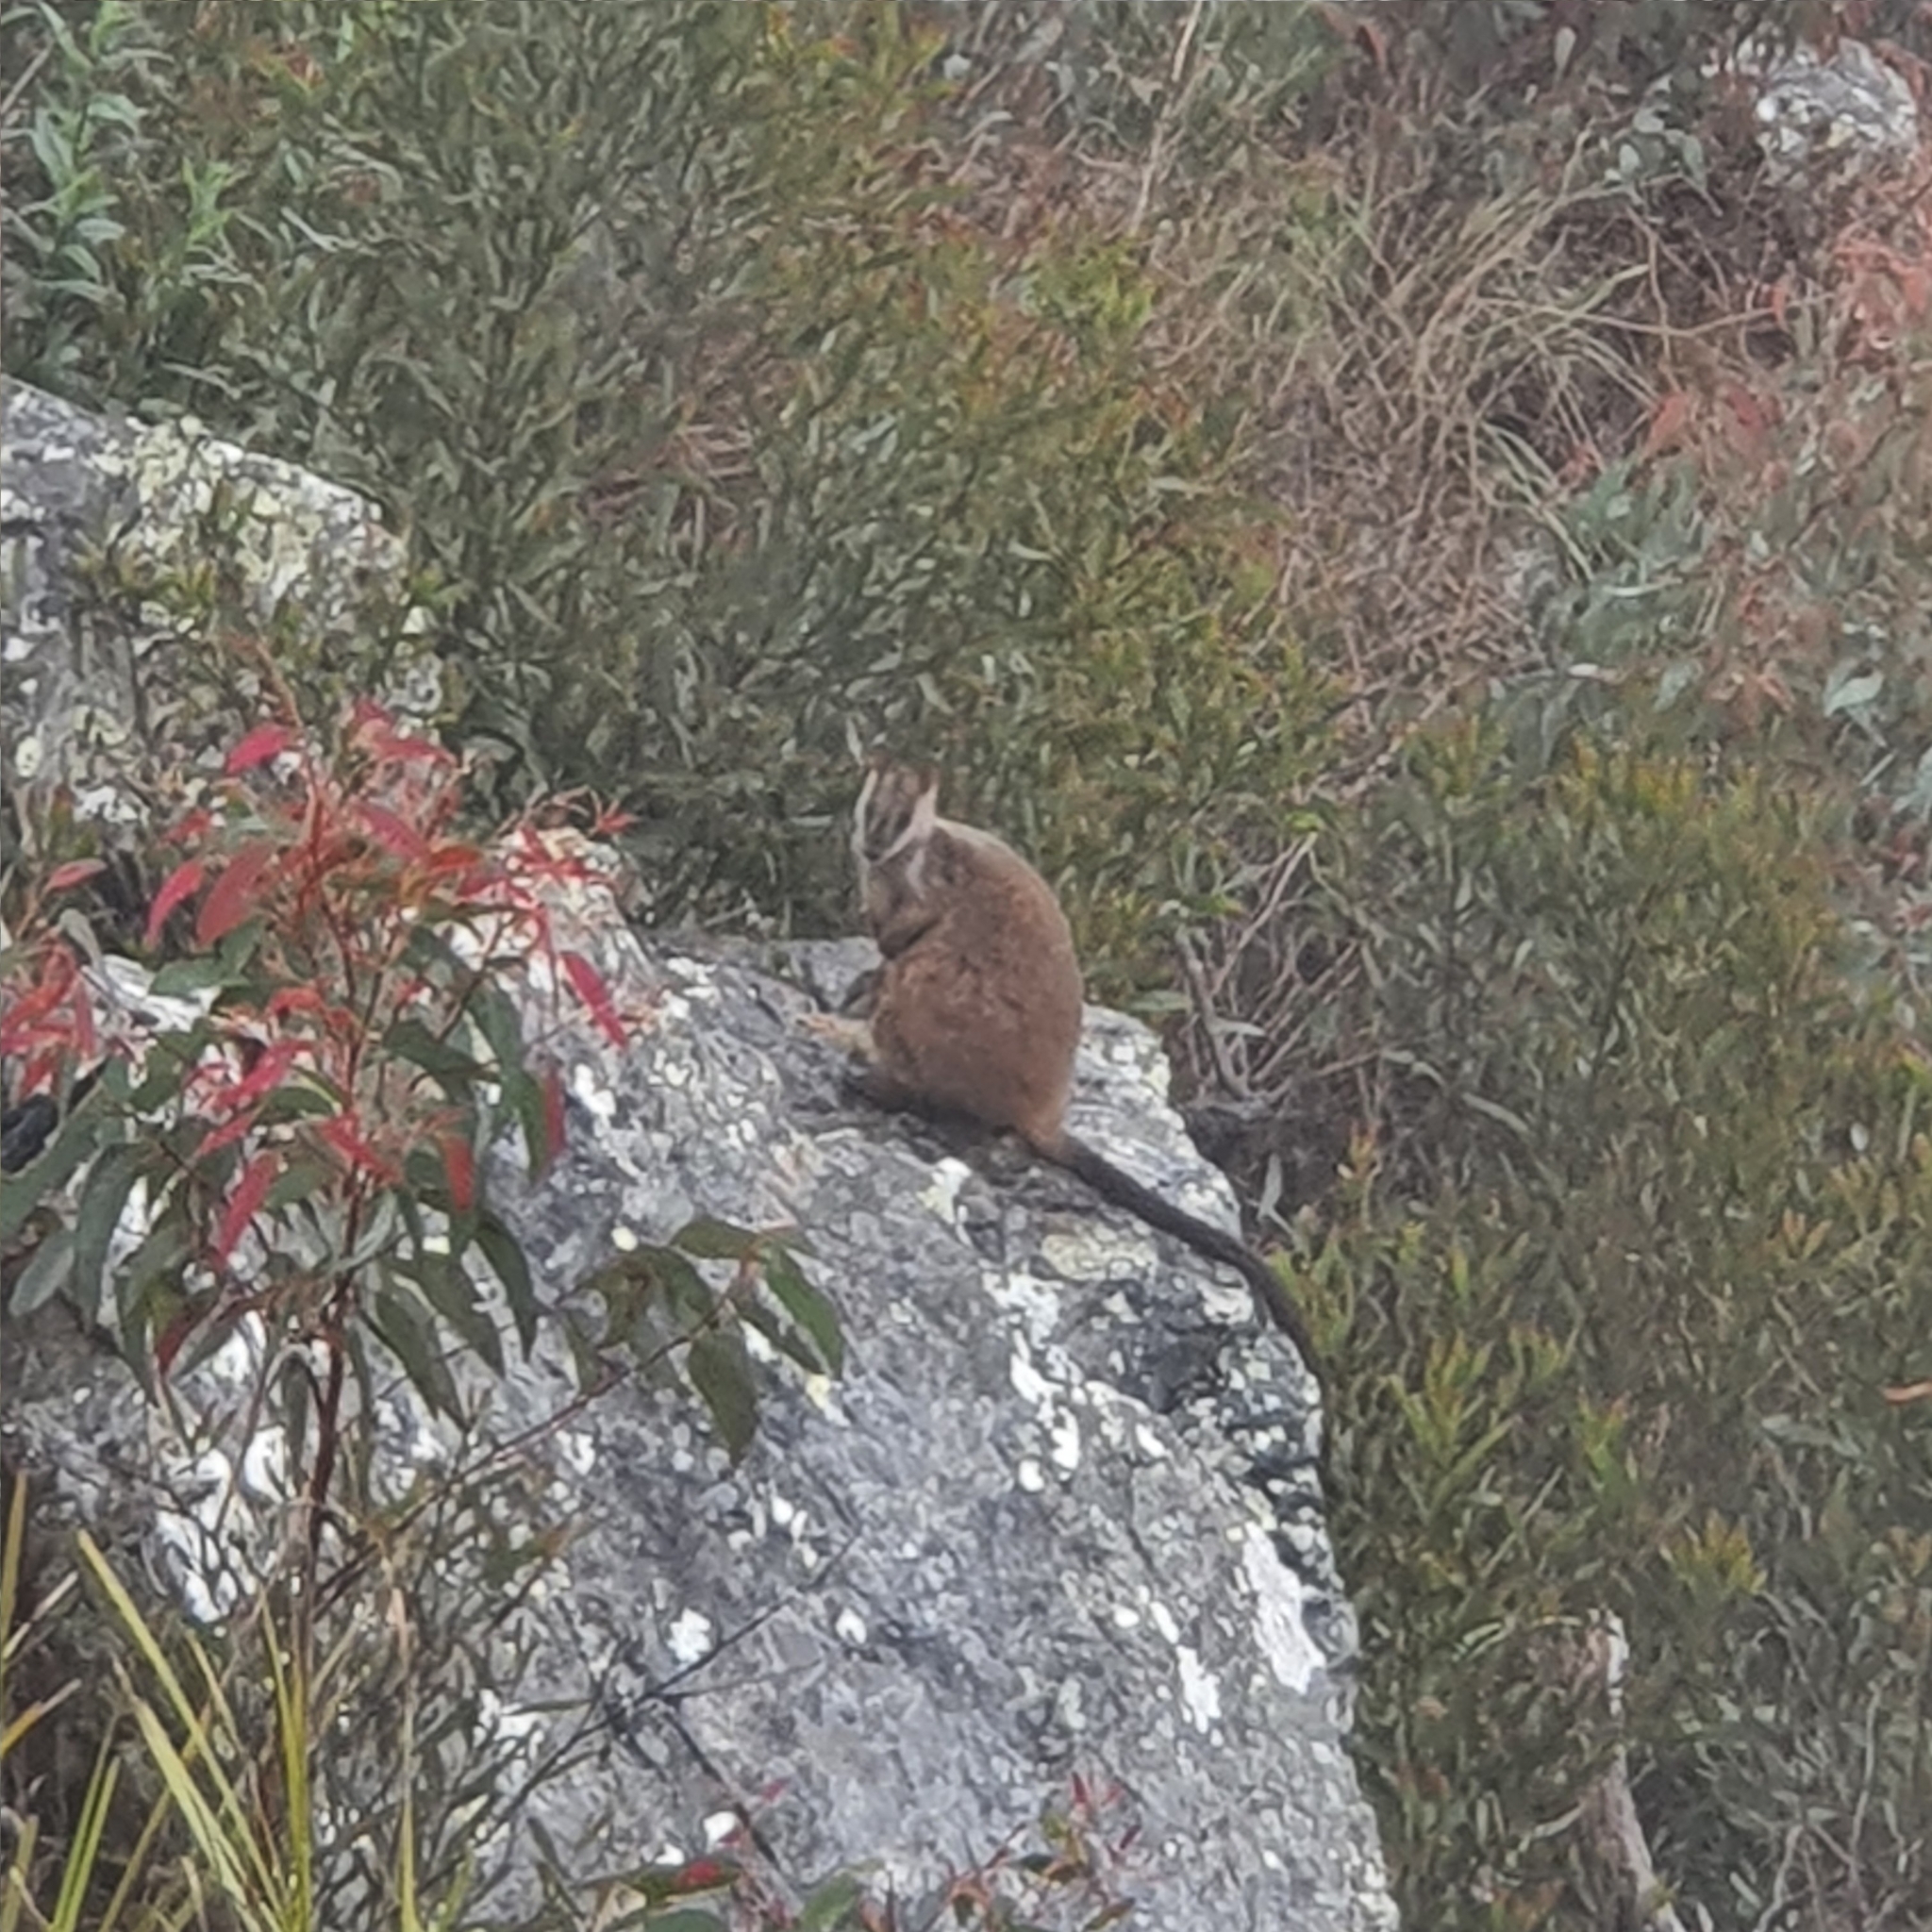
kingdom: Animalia
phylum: Chordata
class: Mammalia
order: Diprotodontia
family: Macropodidae
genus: Petrogale
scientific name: Petrogale penicillata
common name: Brush-tailed rock-wallaby
